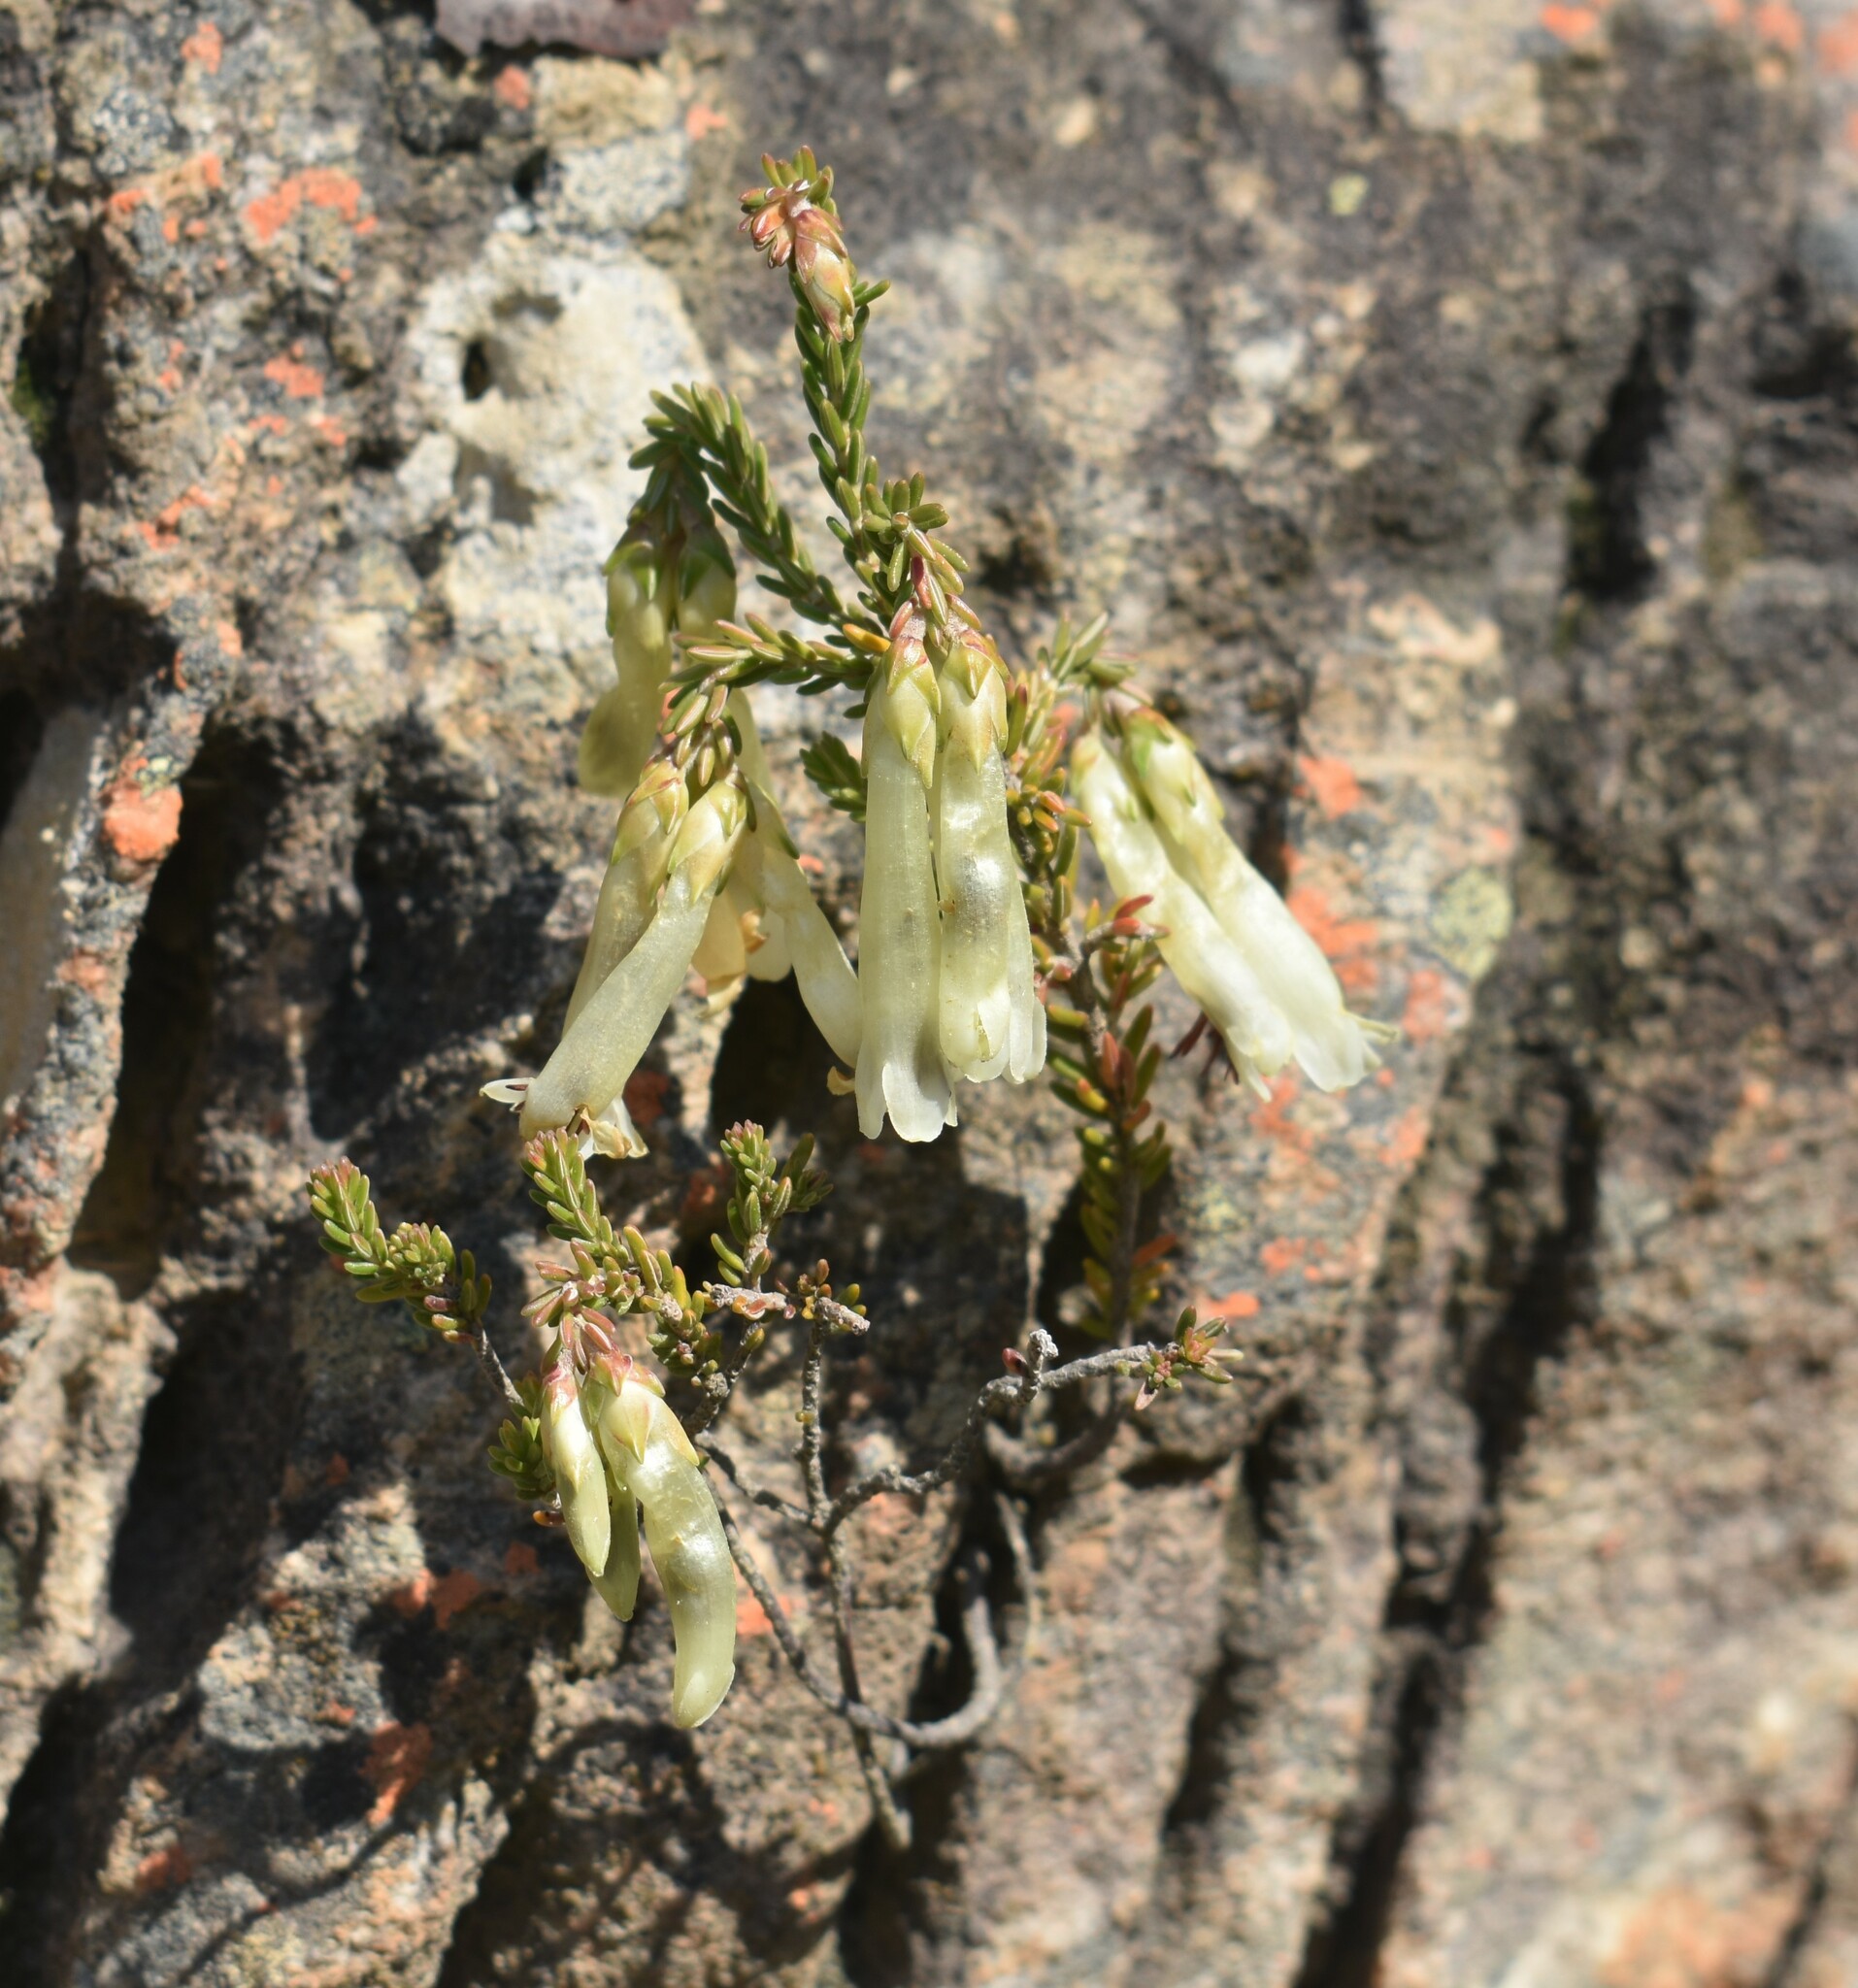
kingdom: Plantae
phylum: Tracheophyta
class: Magnoliopsida
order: Ericales
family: Ericaceae
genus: Erica
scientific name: Erica viridiflora
